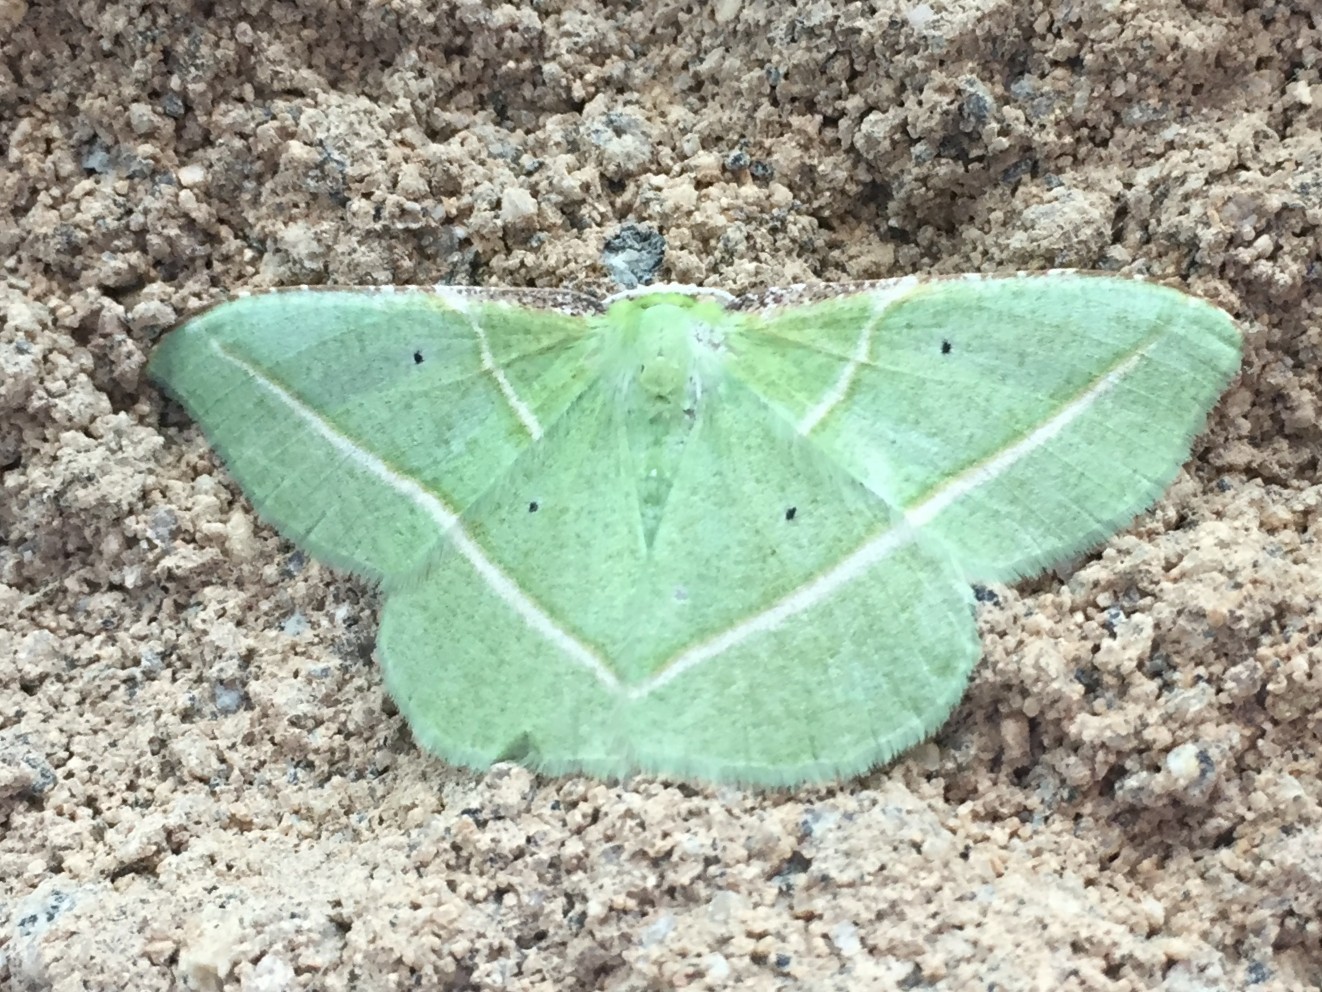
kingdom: Animalia
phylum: Arthropoda
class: Insecta
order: Lepidoptera
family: Geometridae
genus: Dichorda
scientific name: Dichorda illustraria
